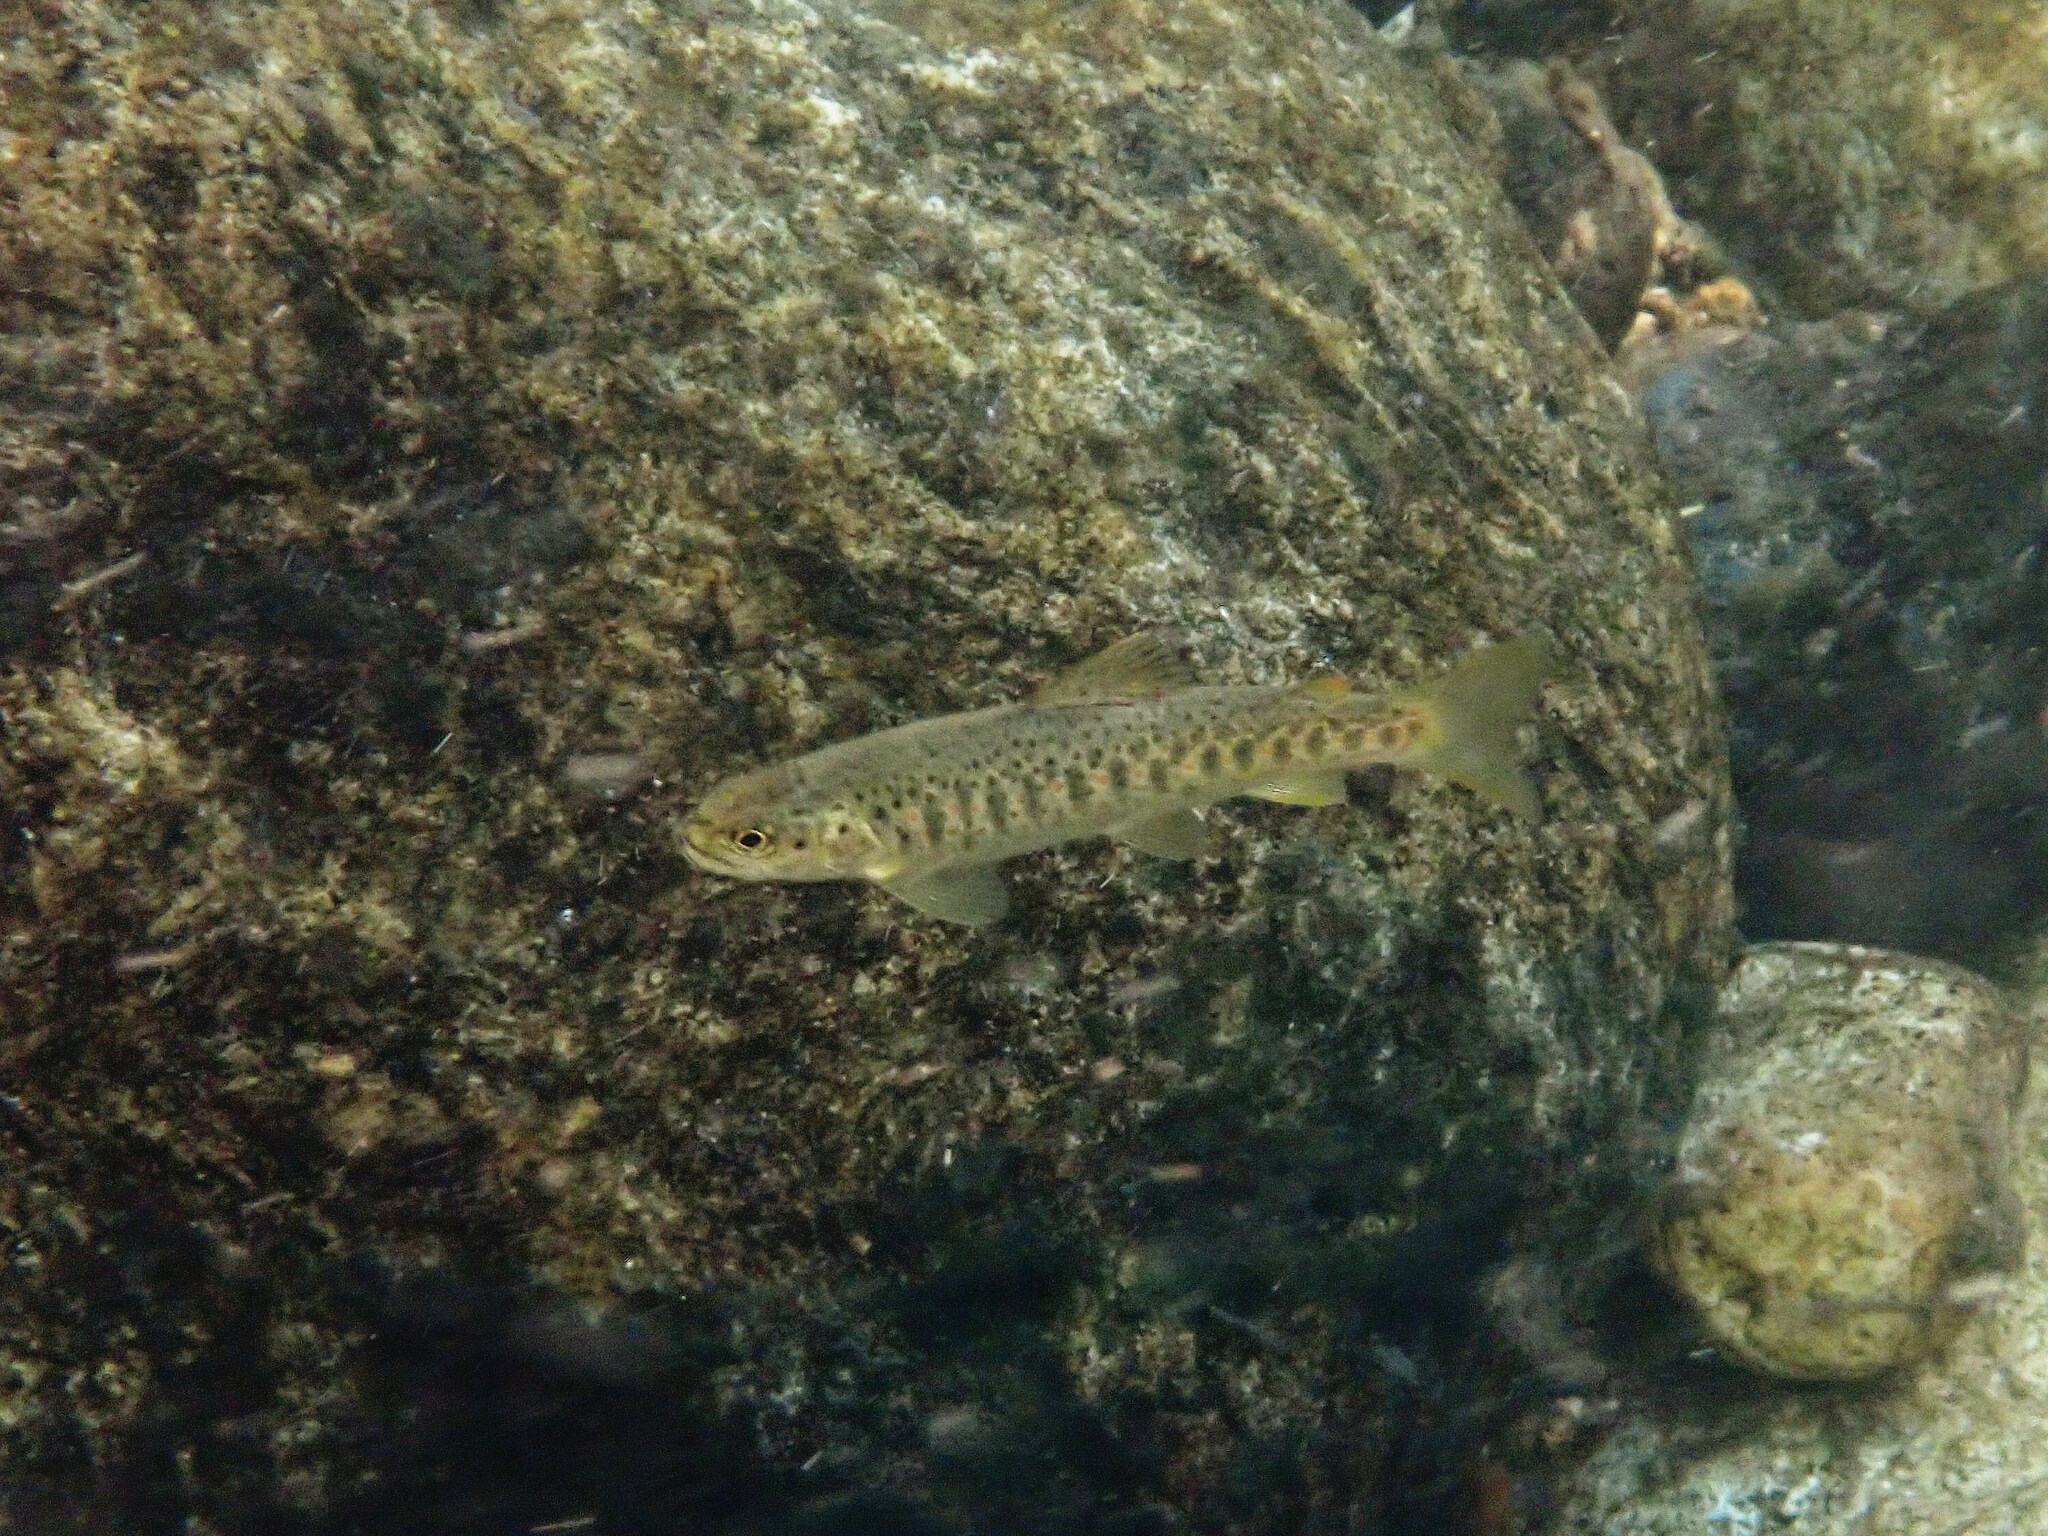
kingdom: Animalia
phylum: Chordata
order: Salmoniformes
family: Salmonidae
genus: Salmo
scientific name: Salmo trutta
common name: Brown trout
